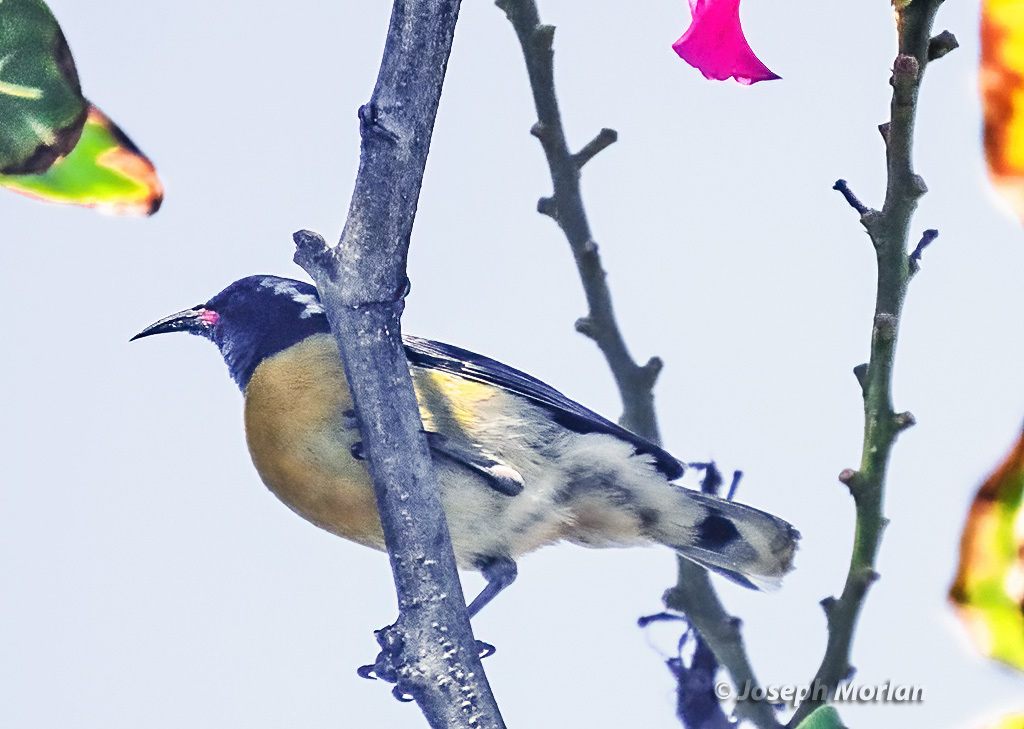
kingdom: Animalia
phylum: Chordata
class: Aves
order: Passeriformes
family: Thraupidae
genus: Coereba
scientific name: Coereba flaveola
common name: Bananaquit
